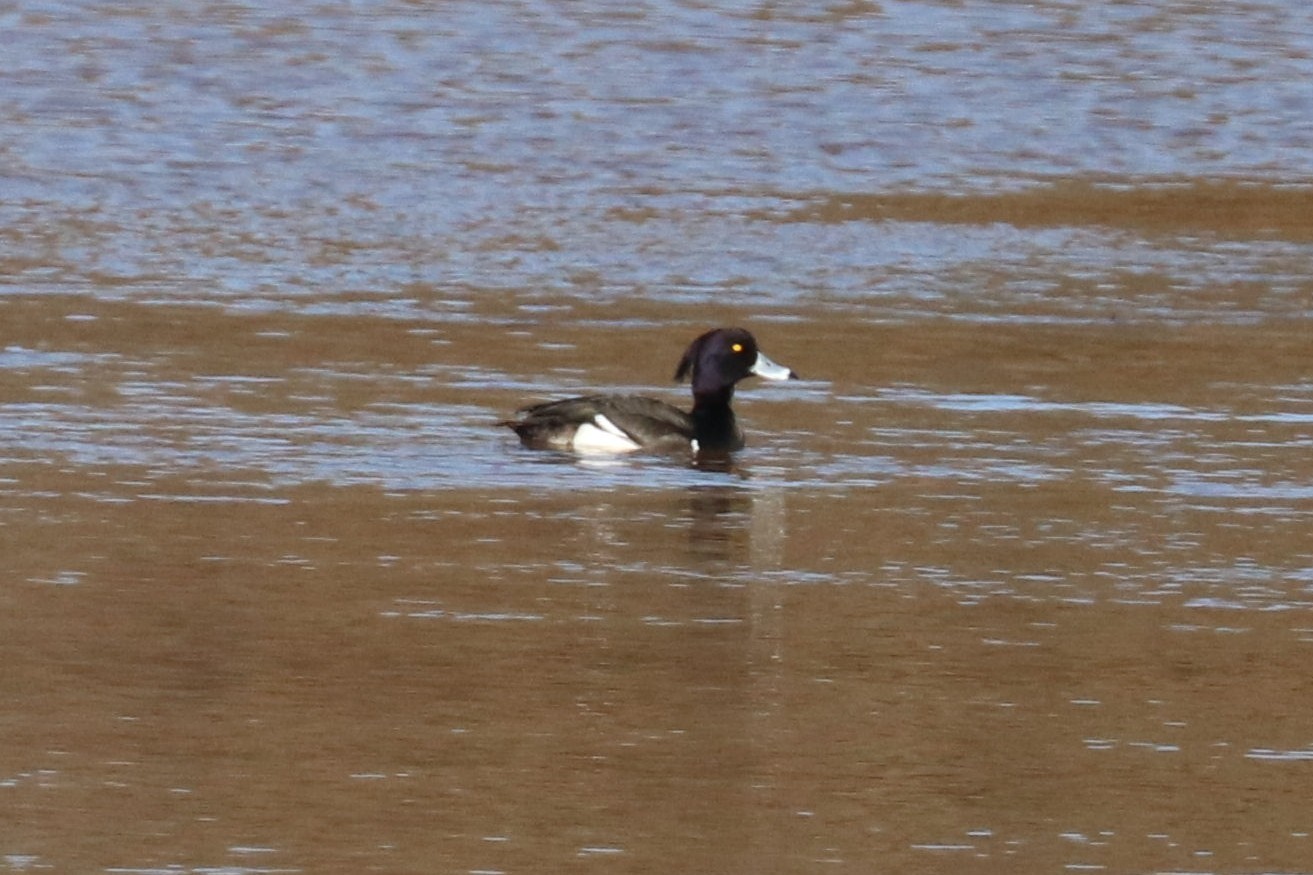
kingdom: Animalia
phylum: Chordata
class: Aves
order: Anseriformes
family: Anatidae
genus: Aythya
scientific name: Aythya fuligula
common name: Tufted duck
